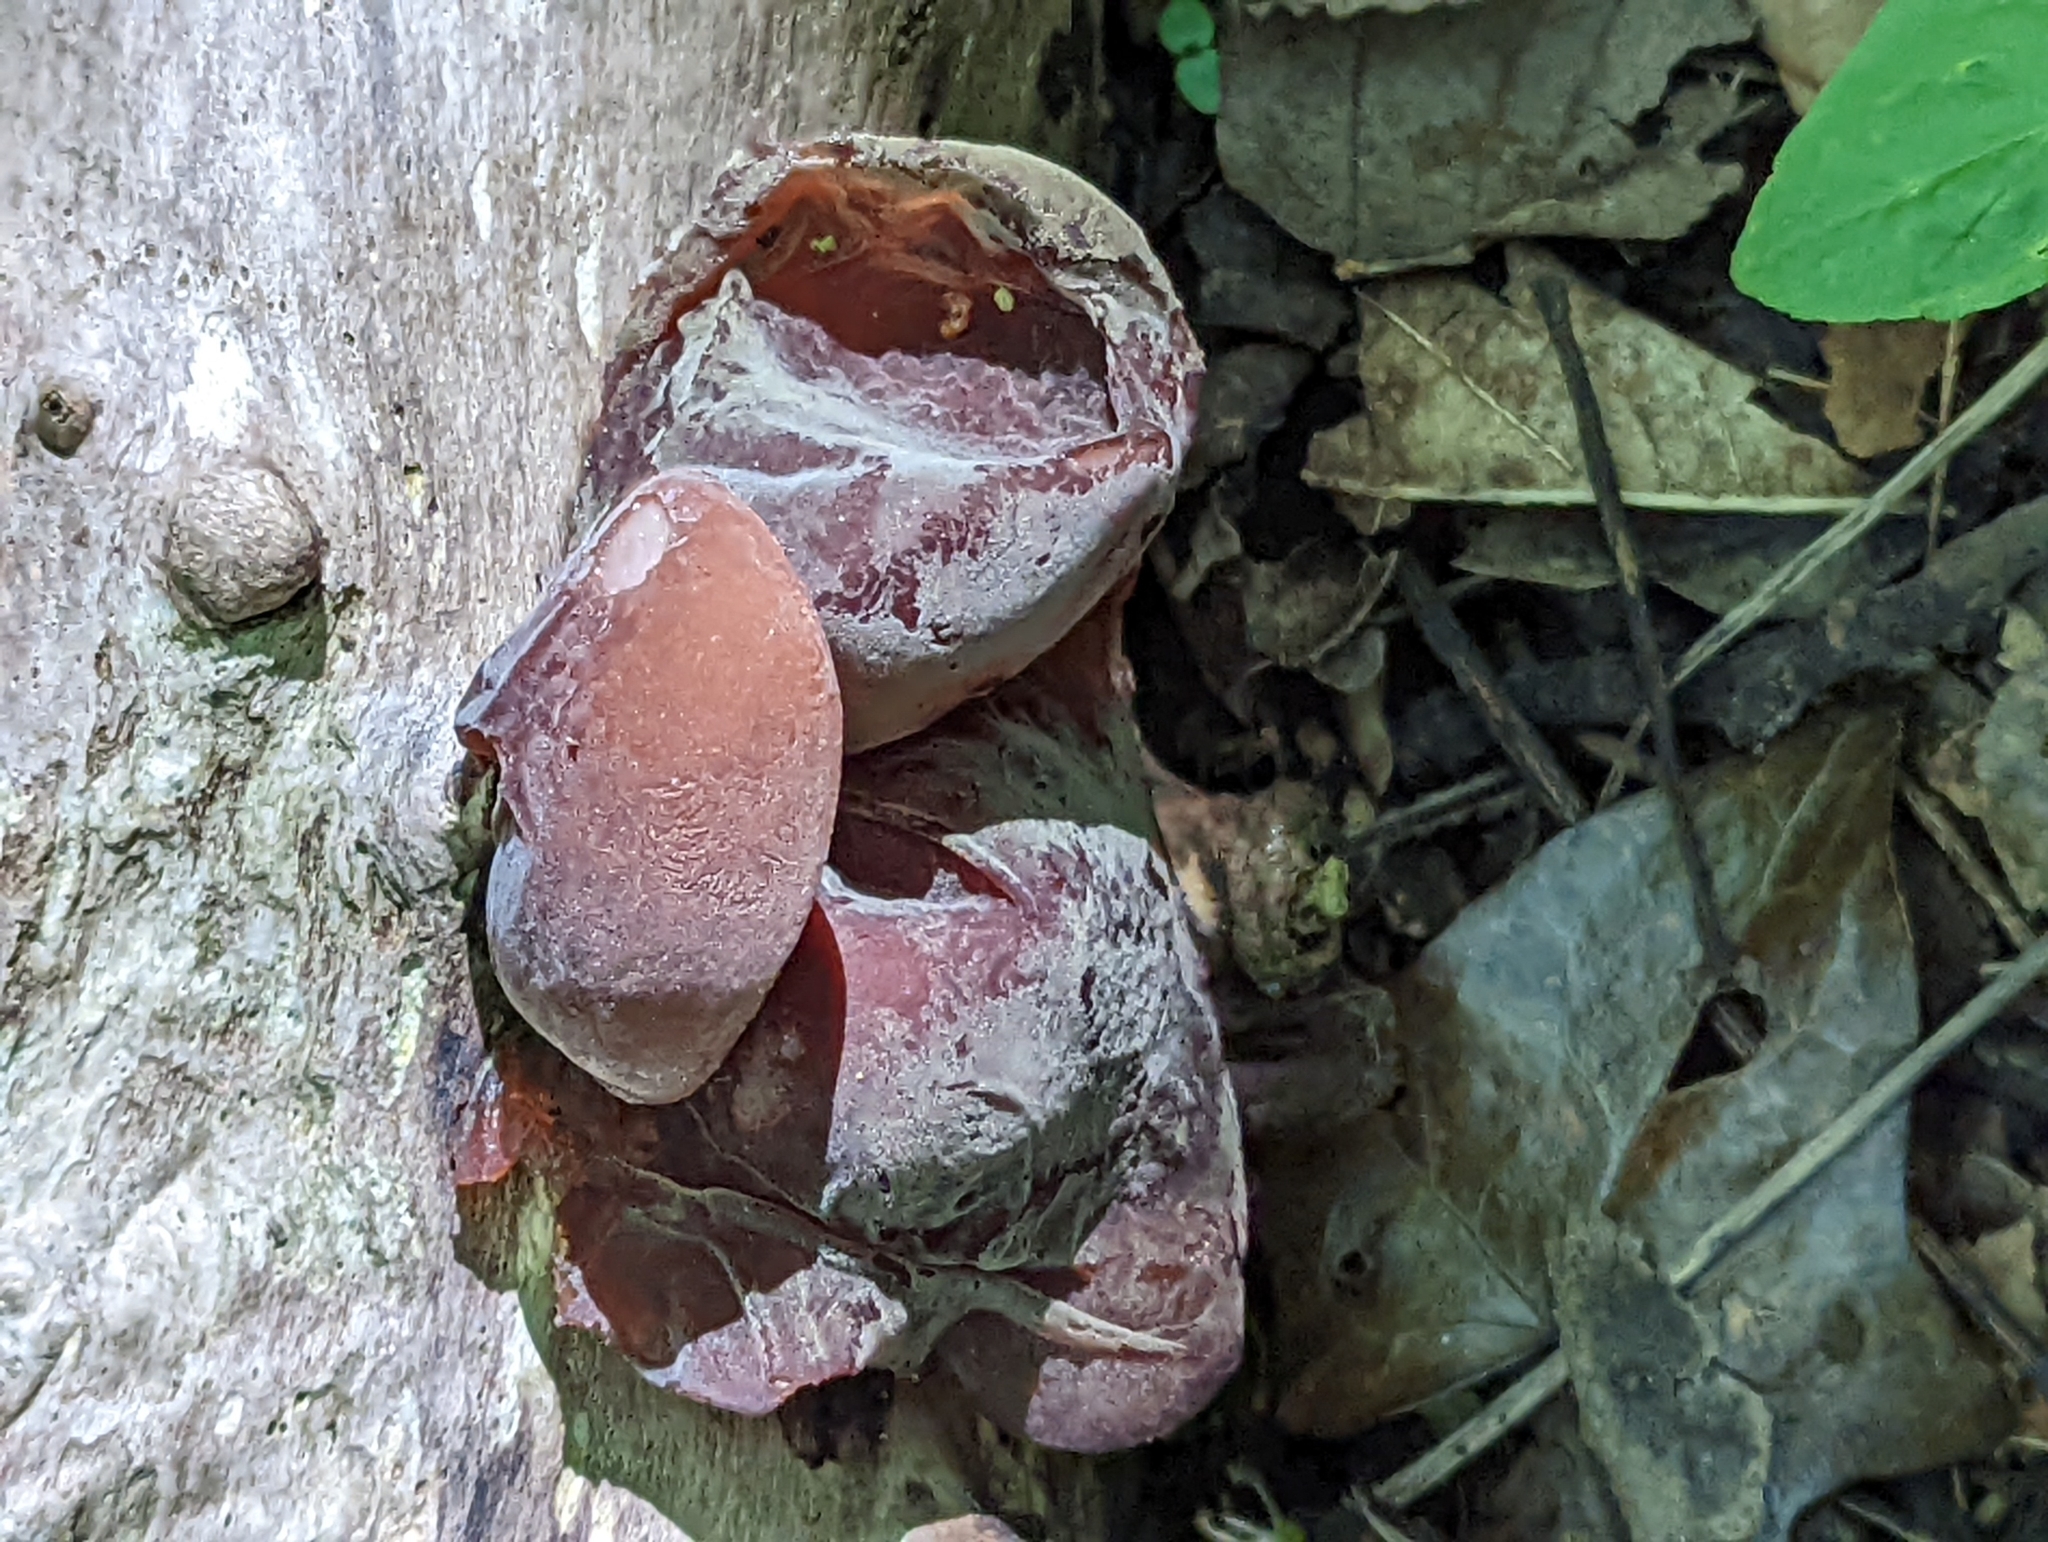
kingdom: Fungi
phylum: Basidiomycota
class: Agaricomycetes
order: Auriculariales
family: Auriculariaceae
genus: Auricularia
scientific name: Auricularia auricula-judae
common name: Jelly ear
